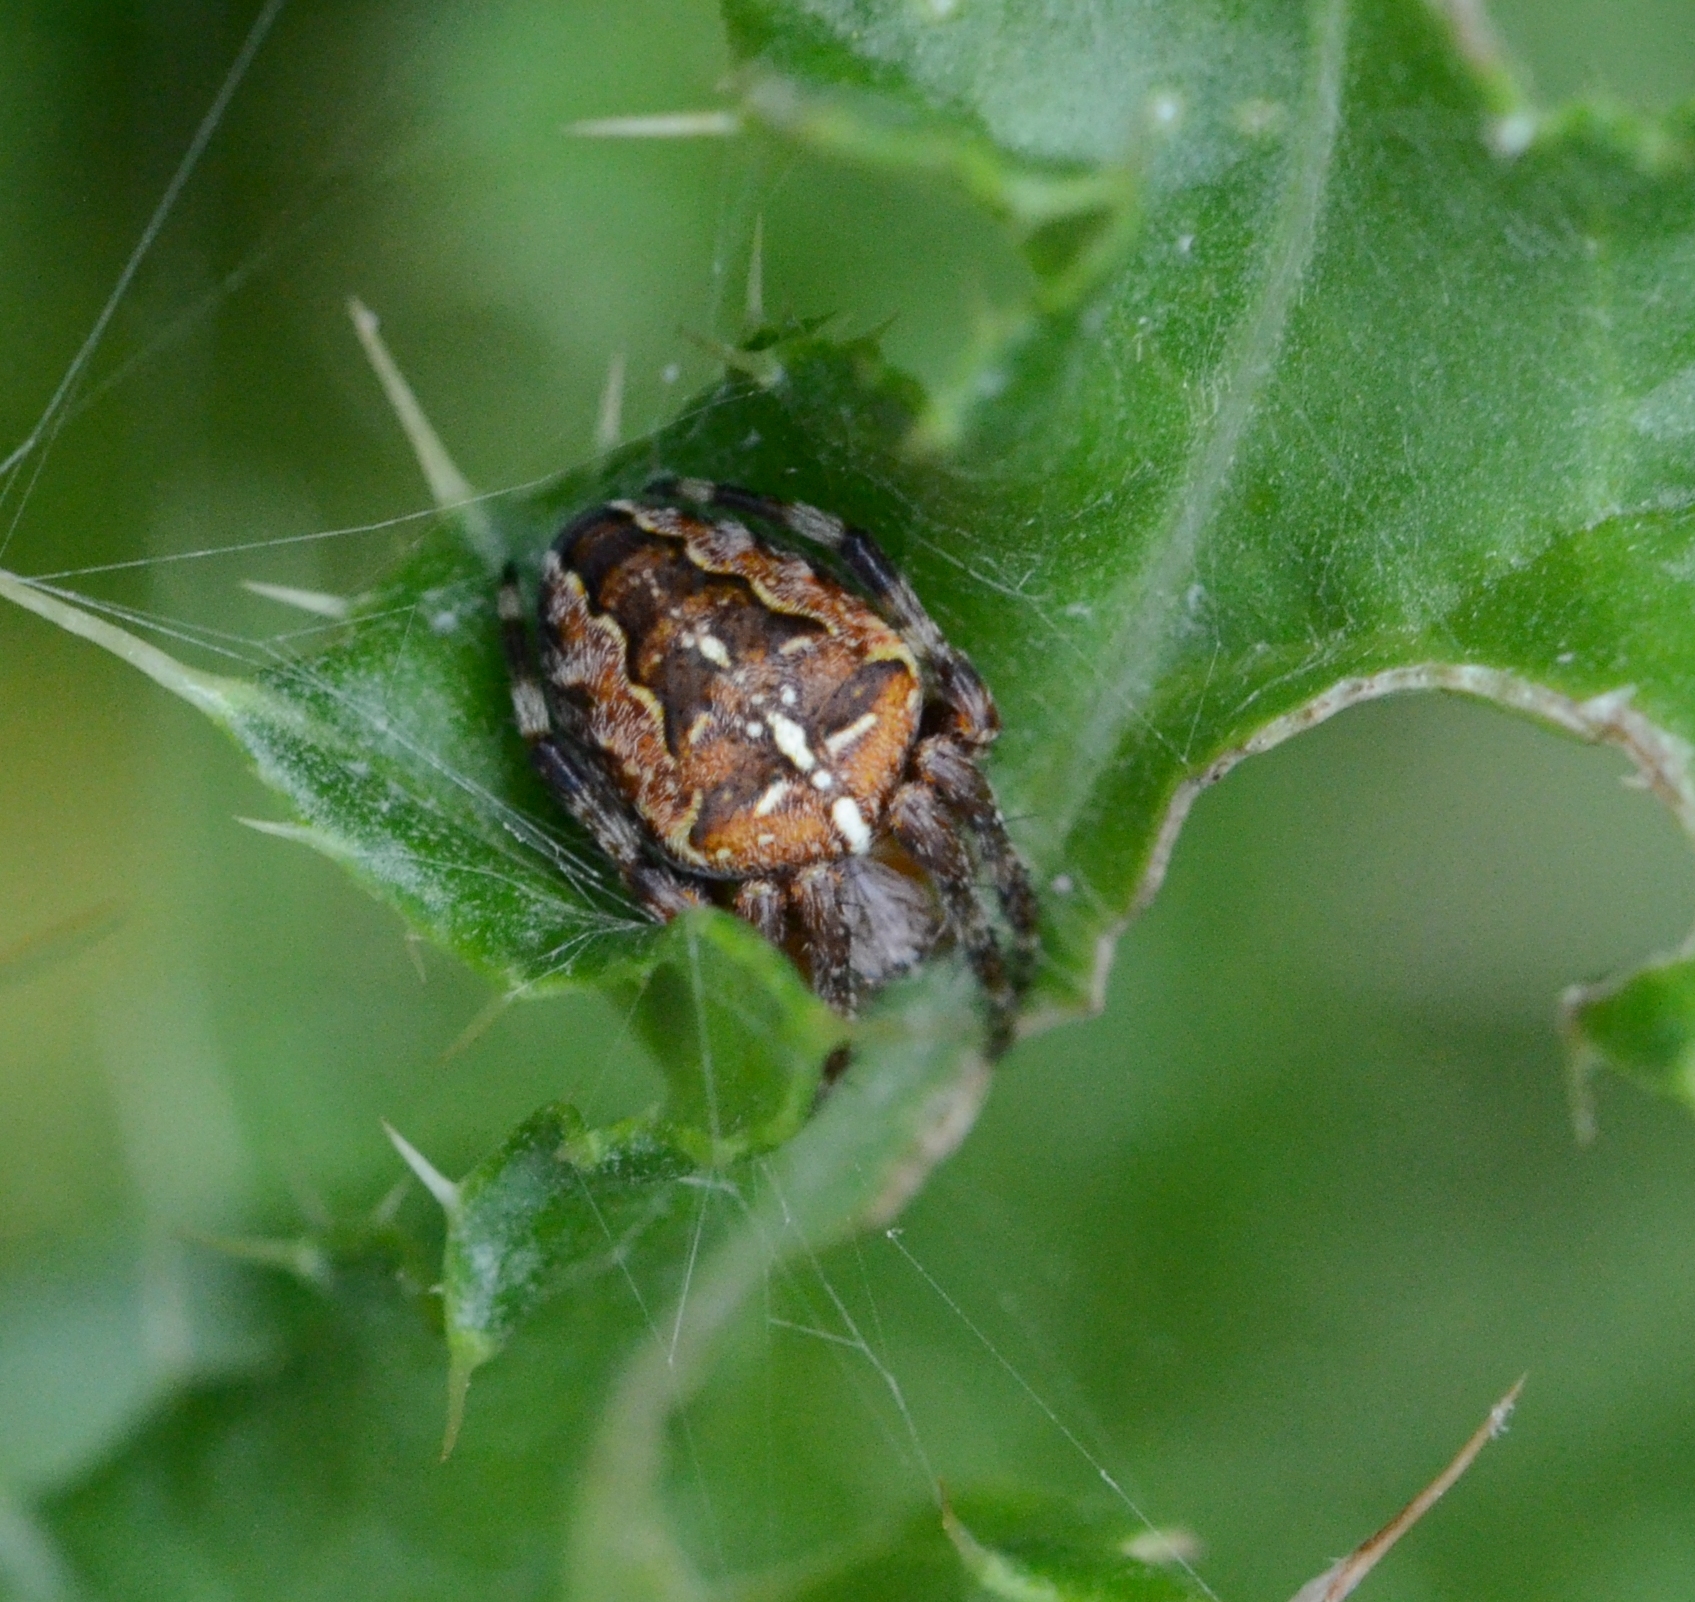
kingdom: Animalia
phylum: Arthropoda
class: Arachnida
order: Araneae
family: Araneidae
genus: Araneus
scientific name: Araneus diadematus
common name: Cross orbweaver
